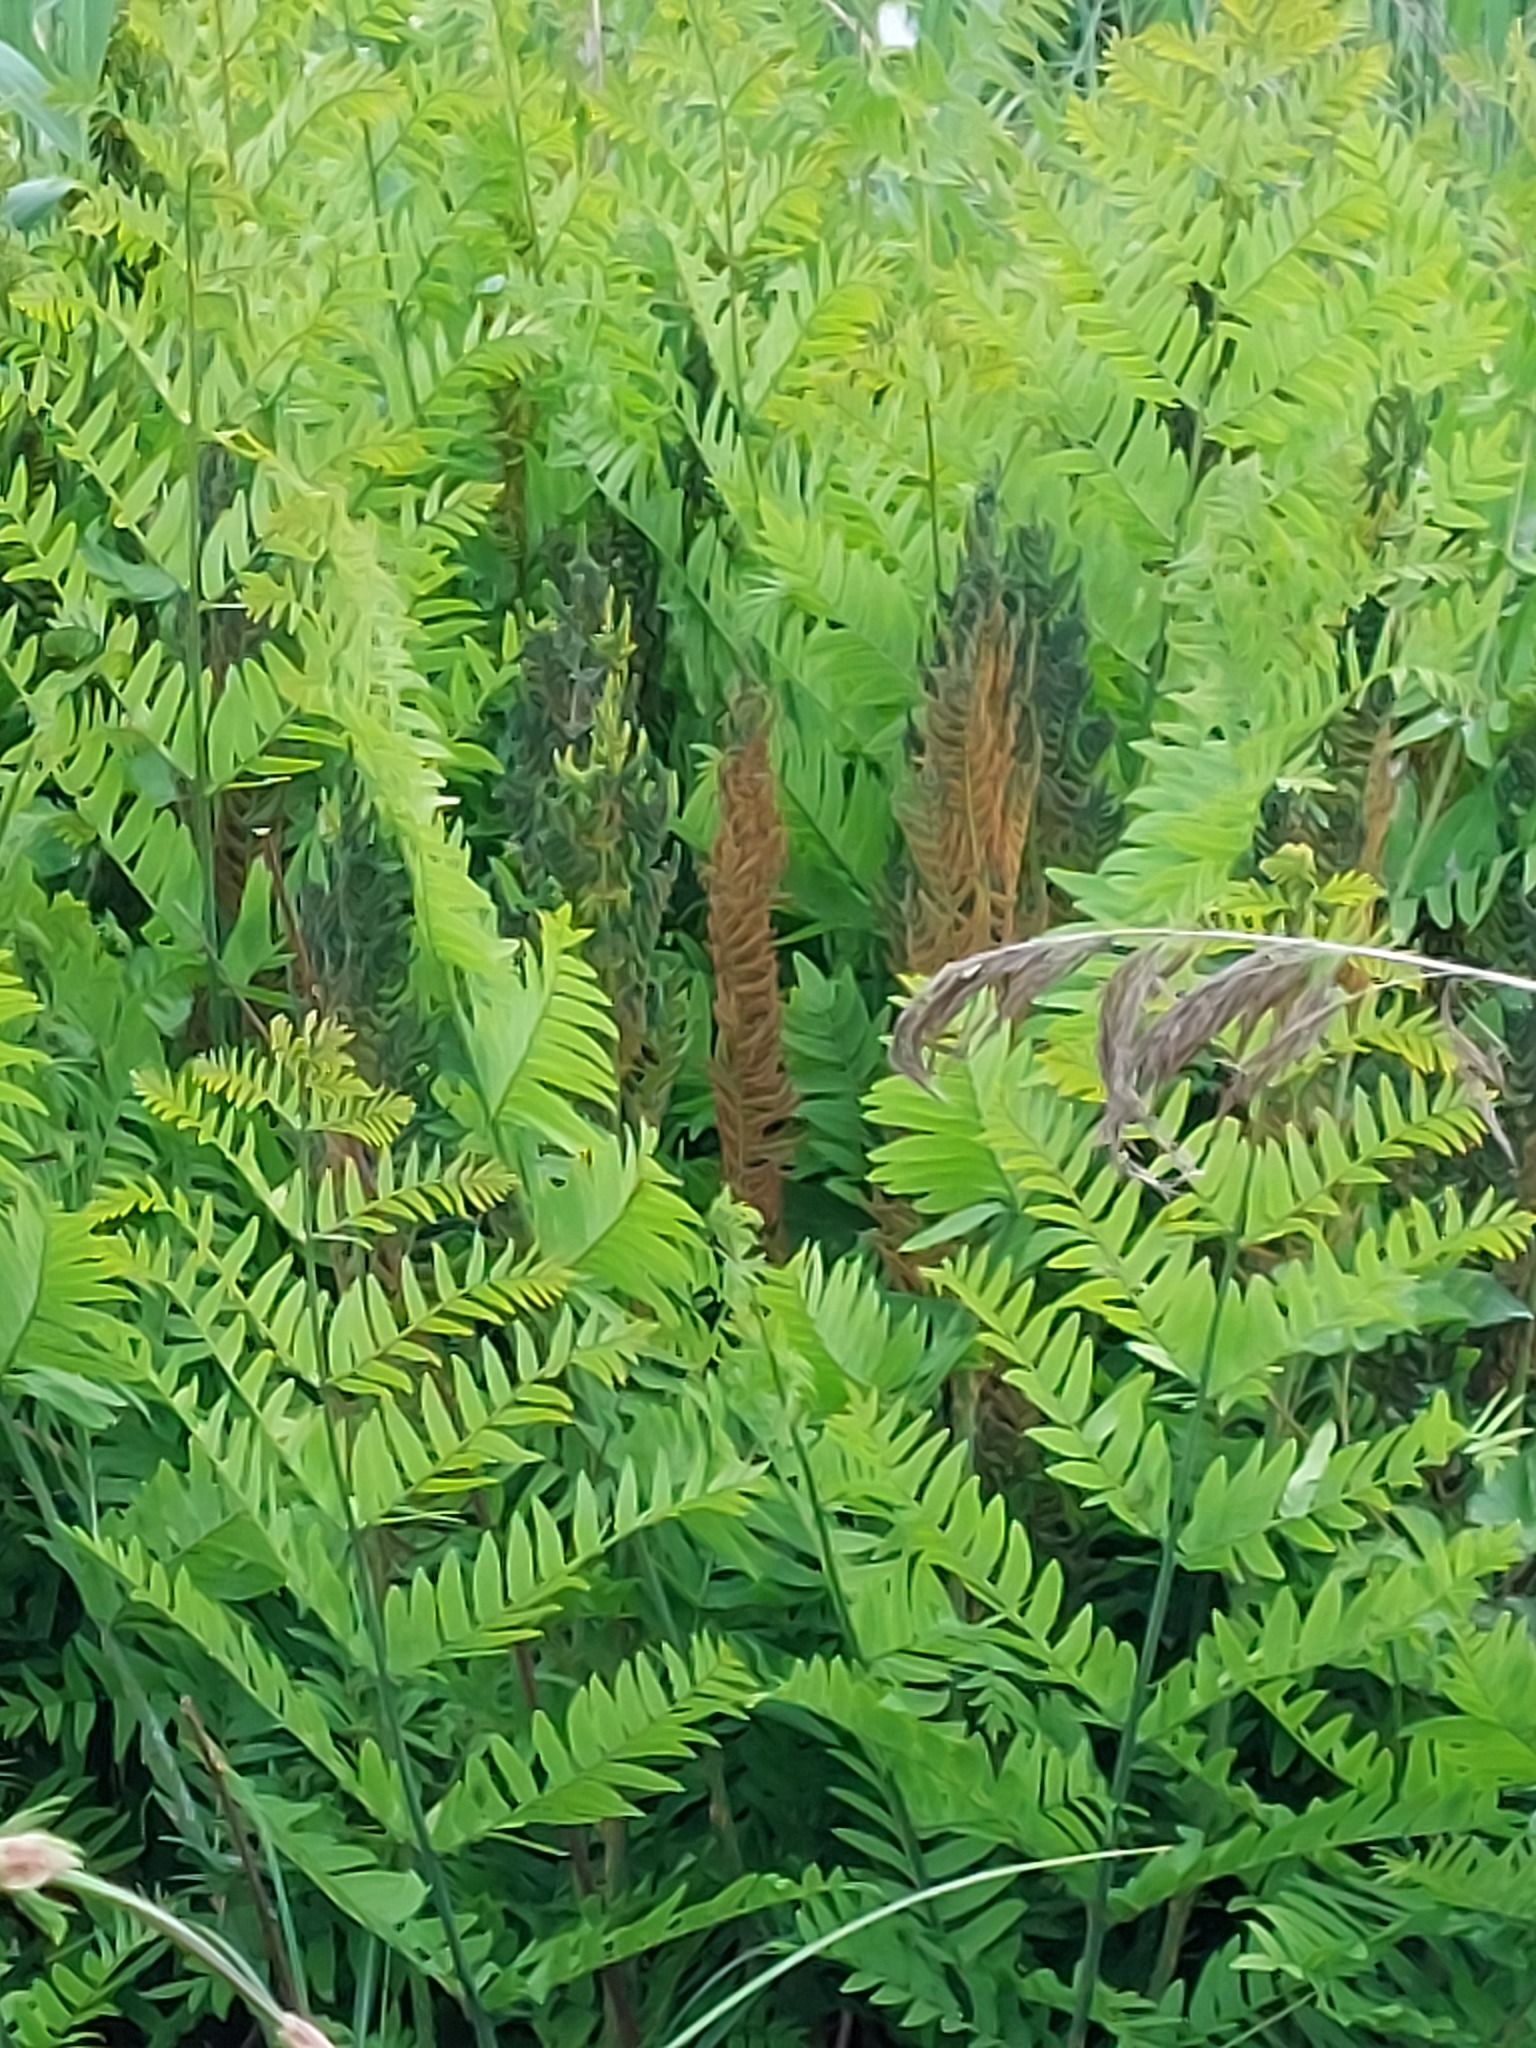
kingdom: Plantae
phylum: Tracheophyta
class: Polypodiopsida
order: Osmundales
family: Osmundaceae
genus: Osmunda
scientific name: Osmunda regalis
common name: Royal fern
